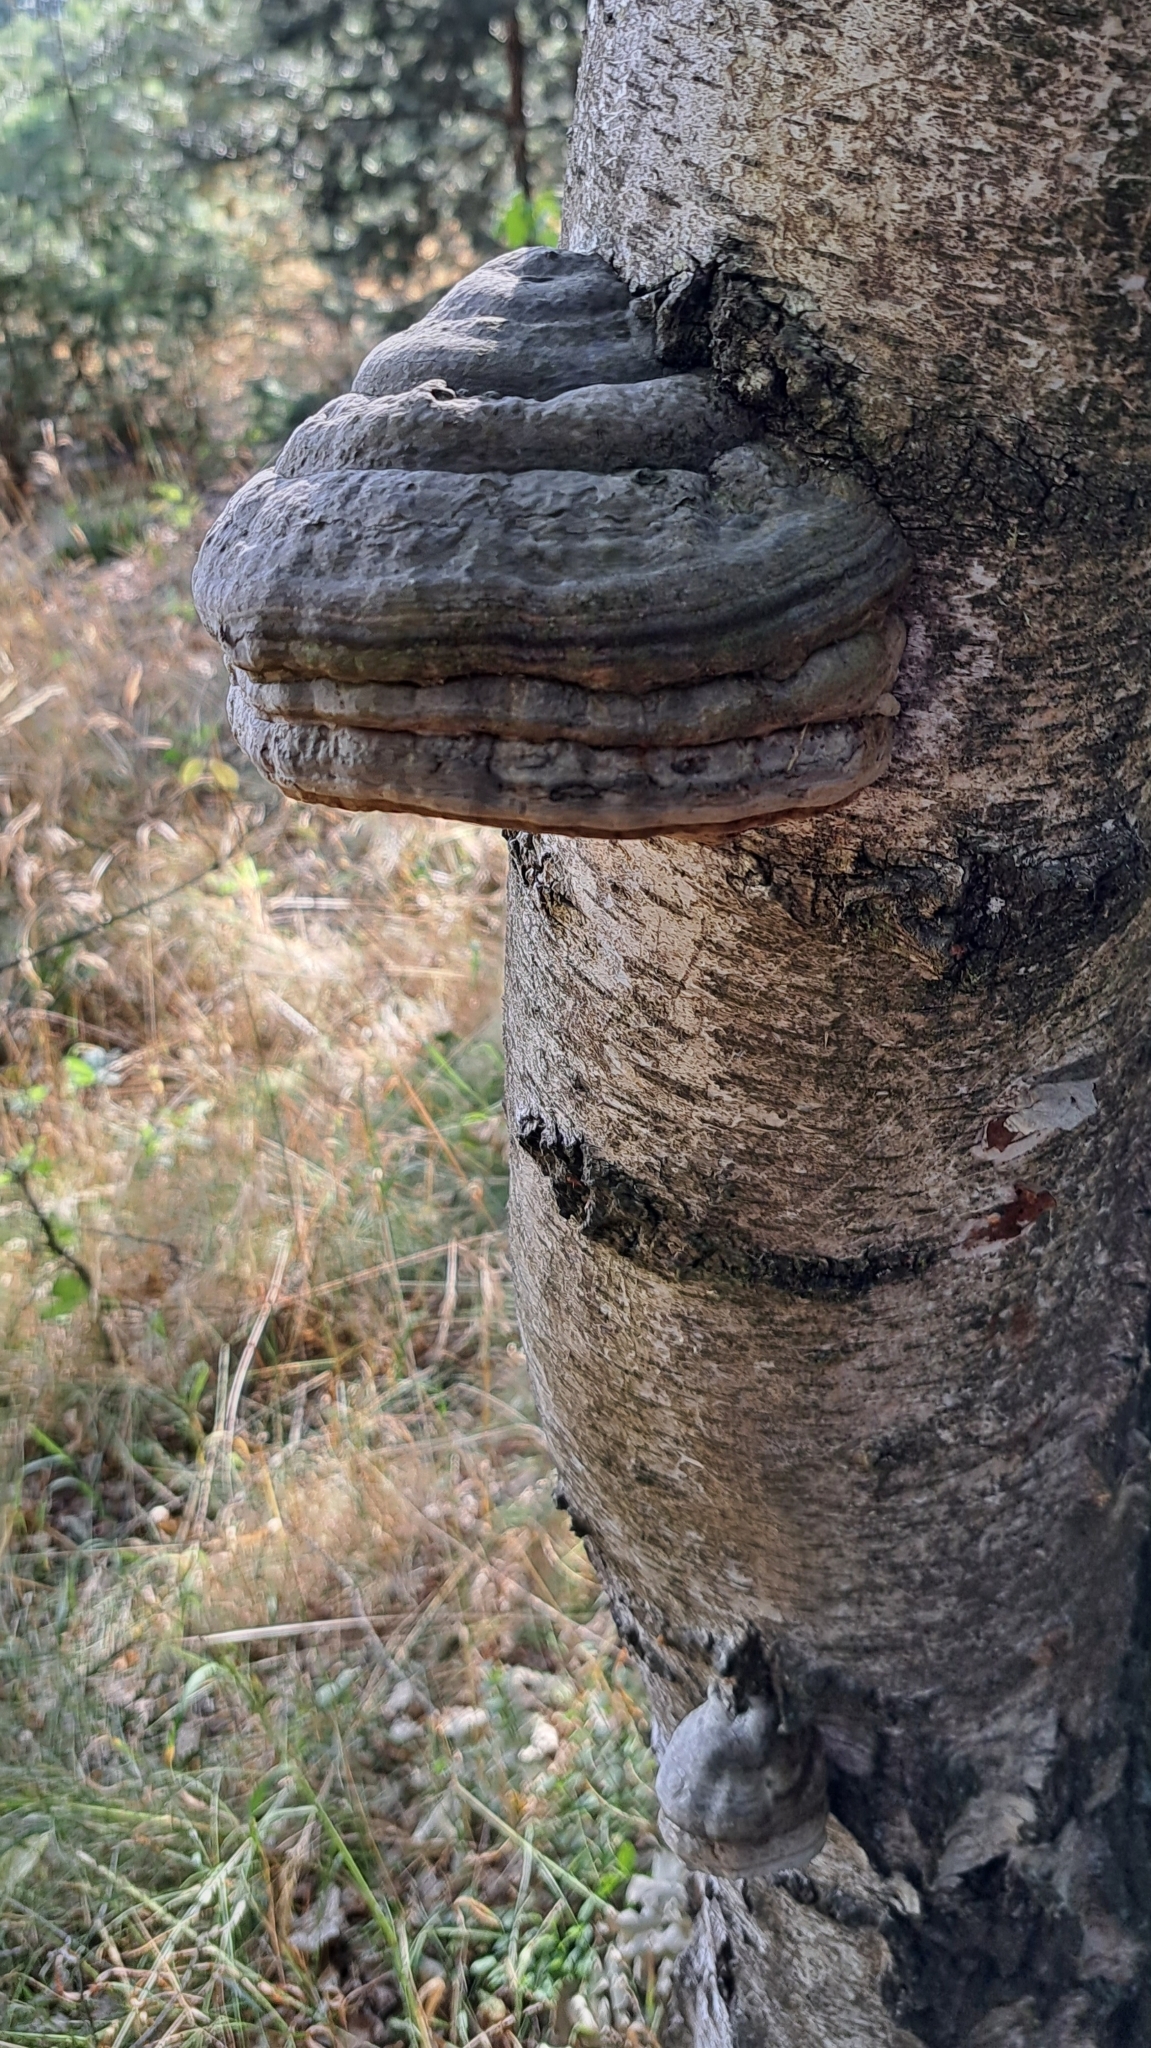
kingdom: Fungi
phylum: Basidiomycota
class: Agaricomycetes
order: Polyporales
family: Polyporaceae
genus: Fomes
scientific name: Fomes fomentarius
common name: Hoof fungus
